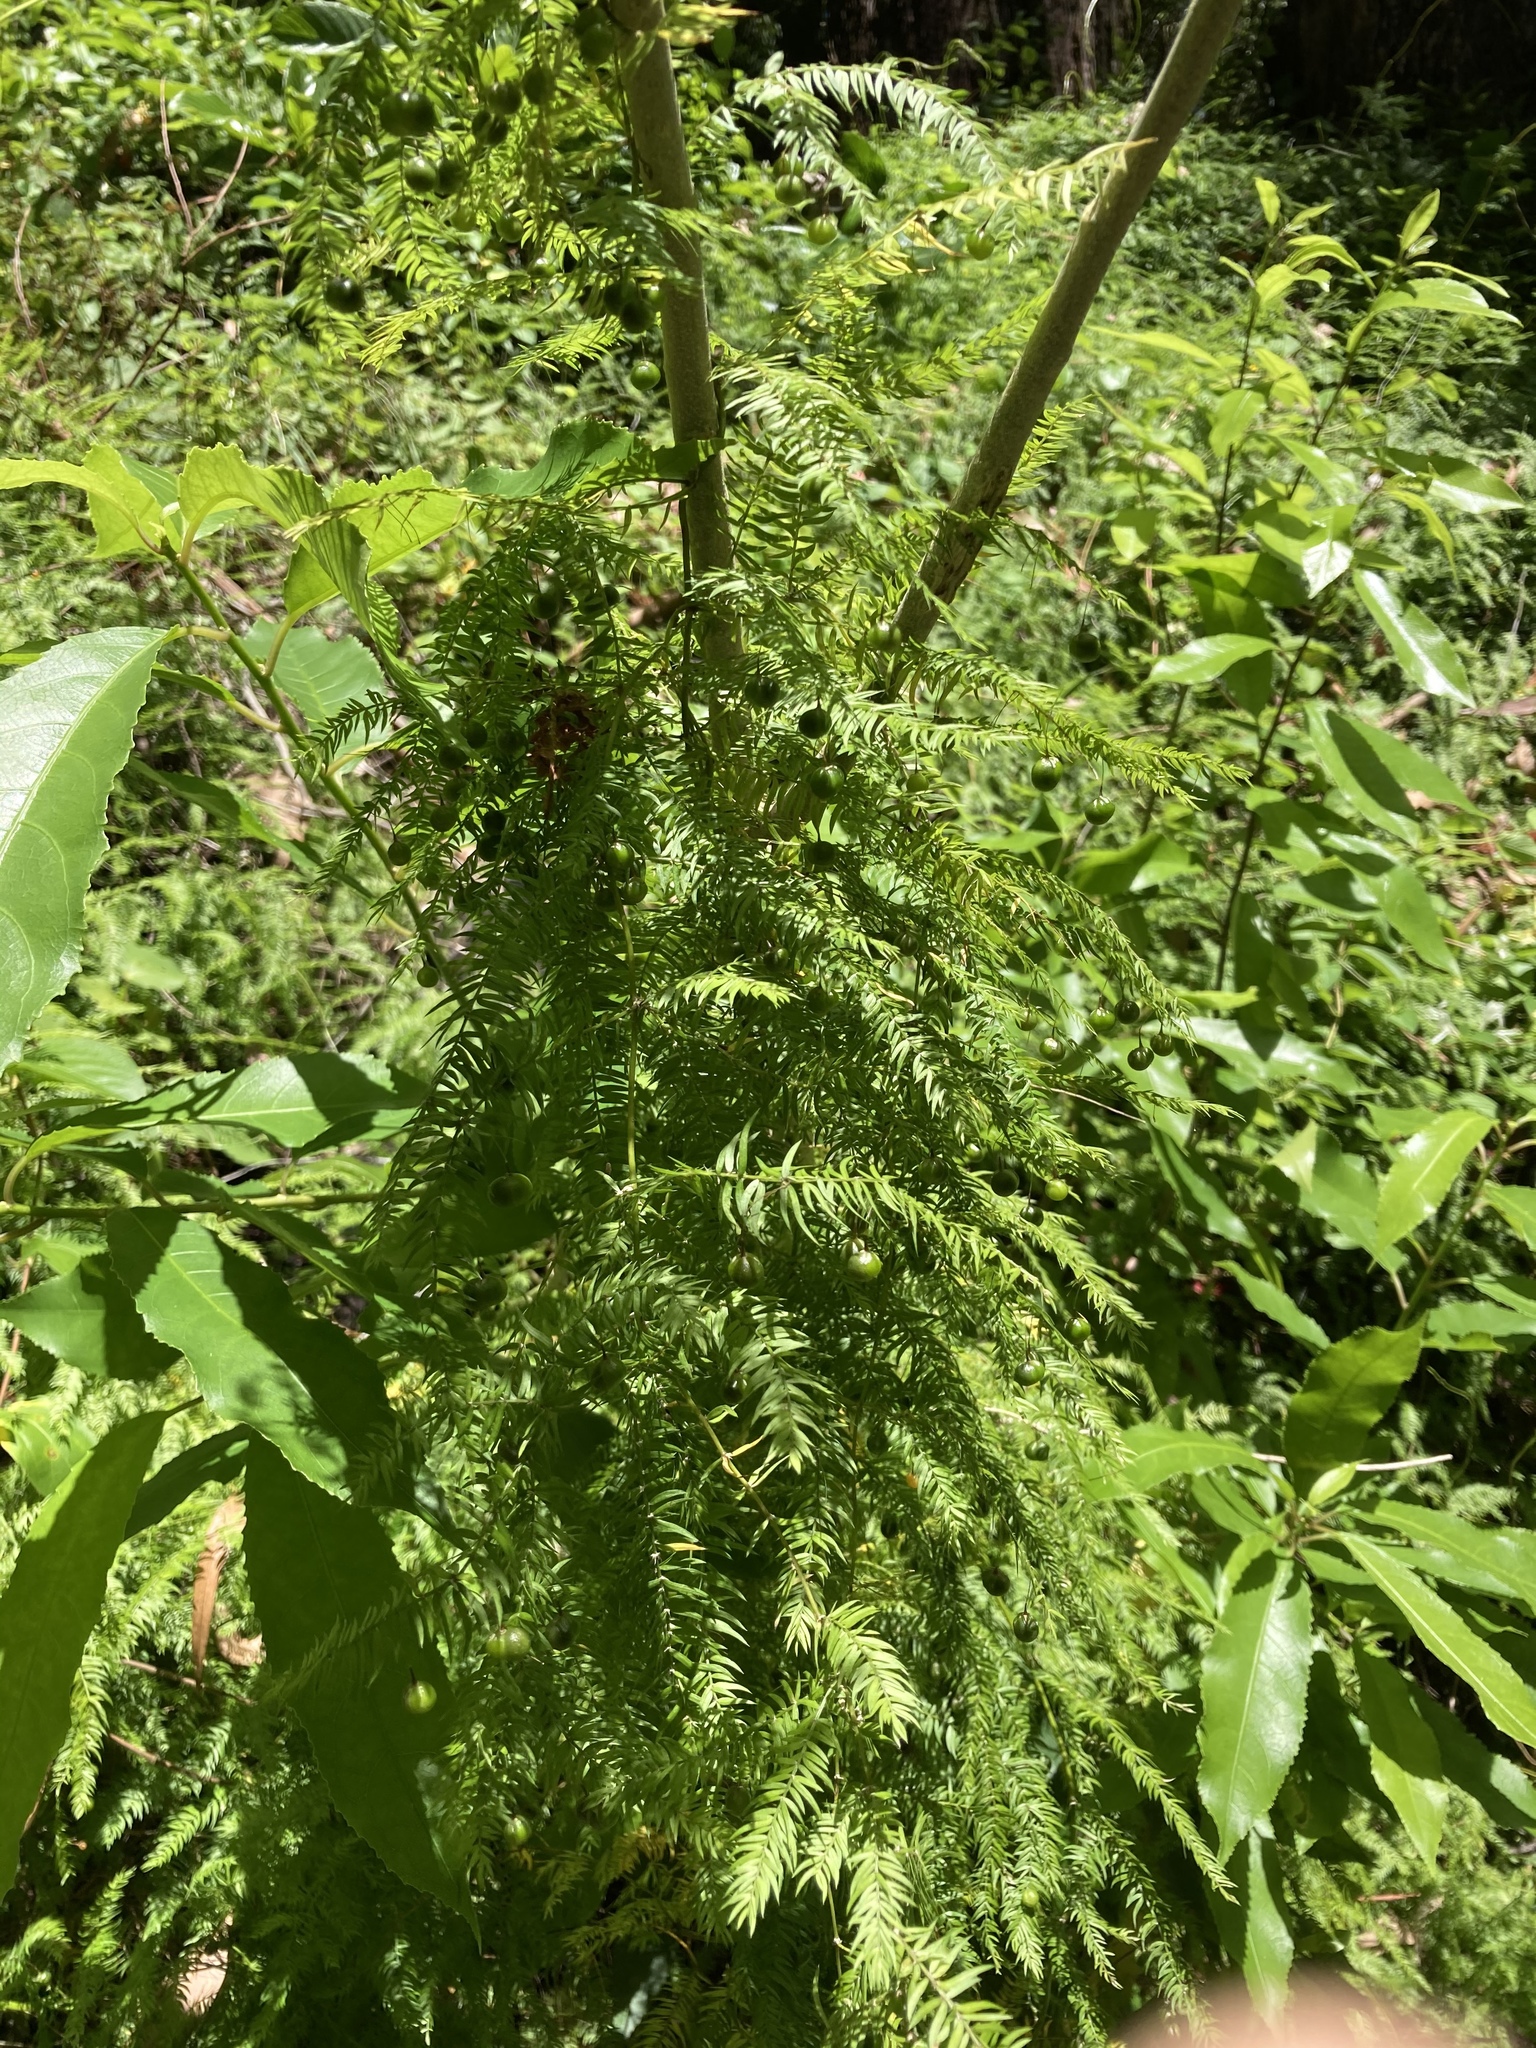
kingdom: Plantae
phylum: Tracheophyta
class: Liliopsida
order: Asparagales
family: Asparagaceae
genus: Asparagus
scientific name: Asparagus scandens
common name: Asparagus-fern
